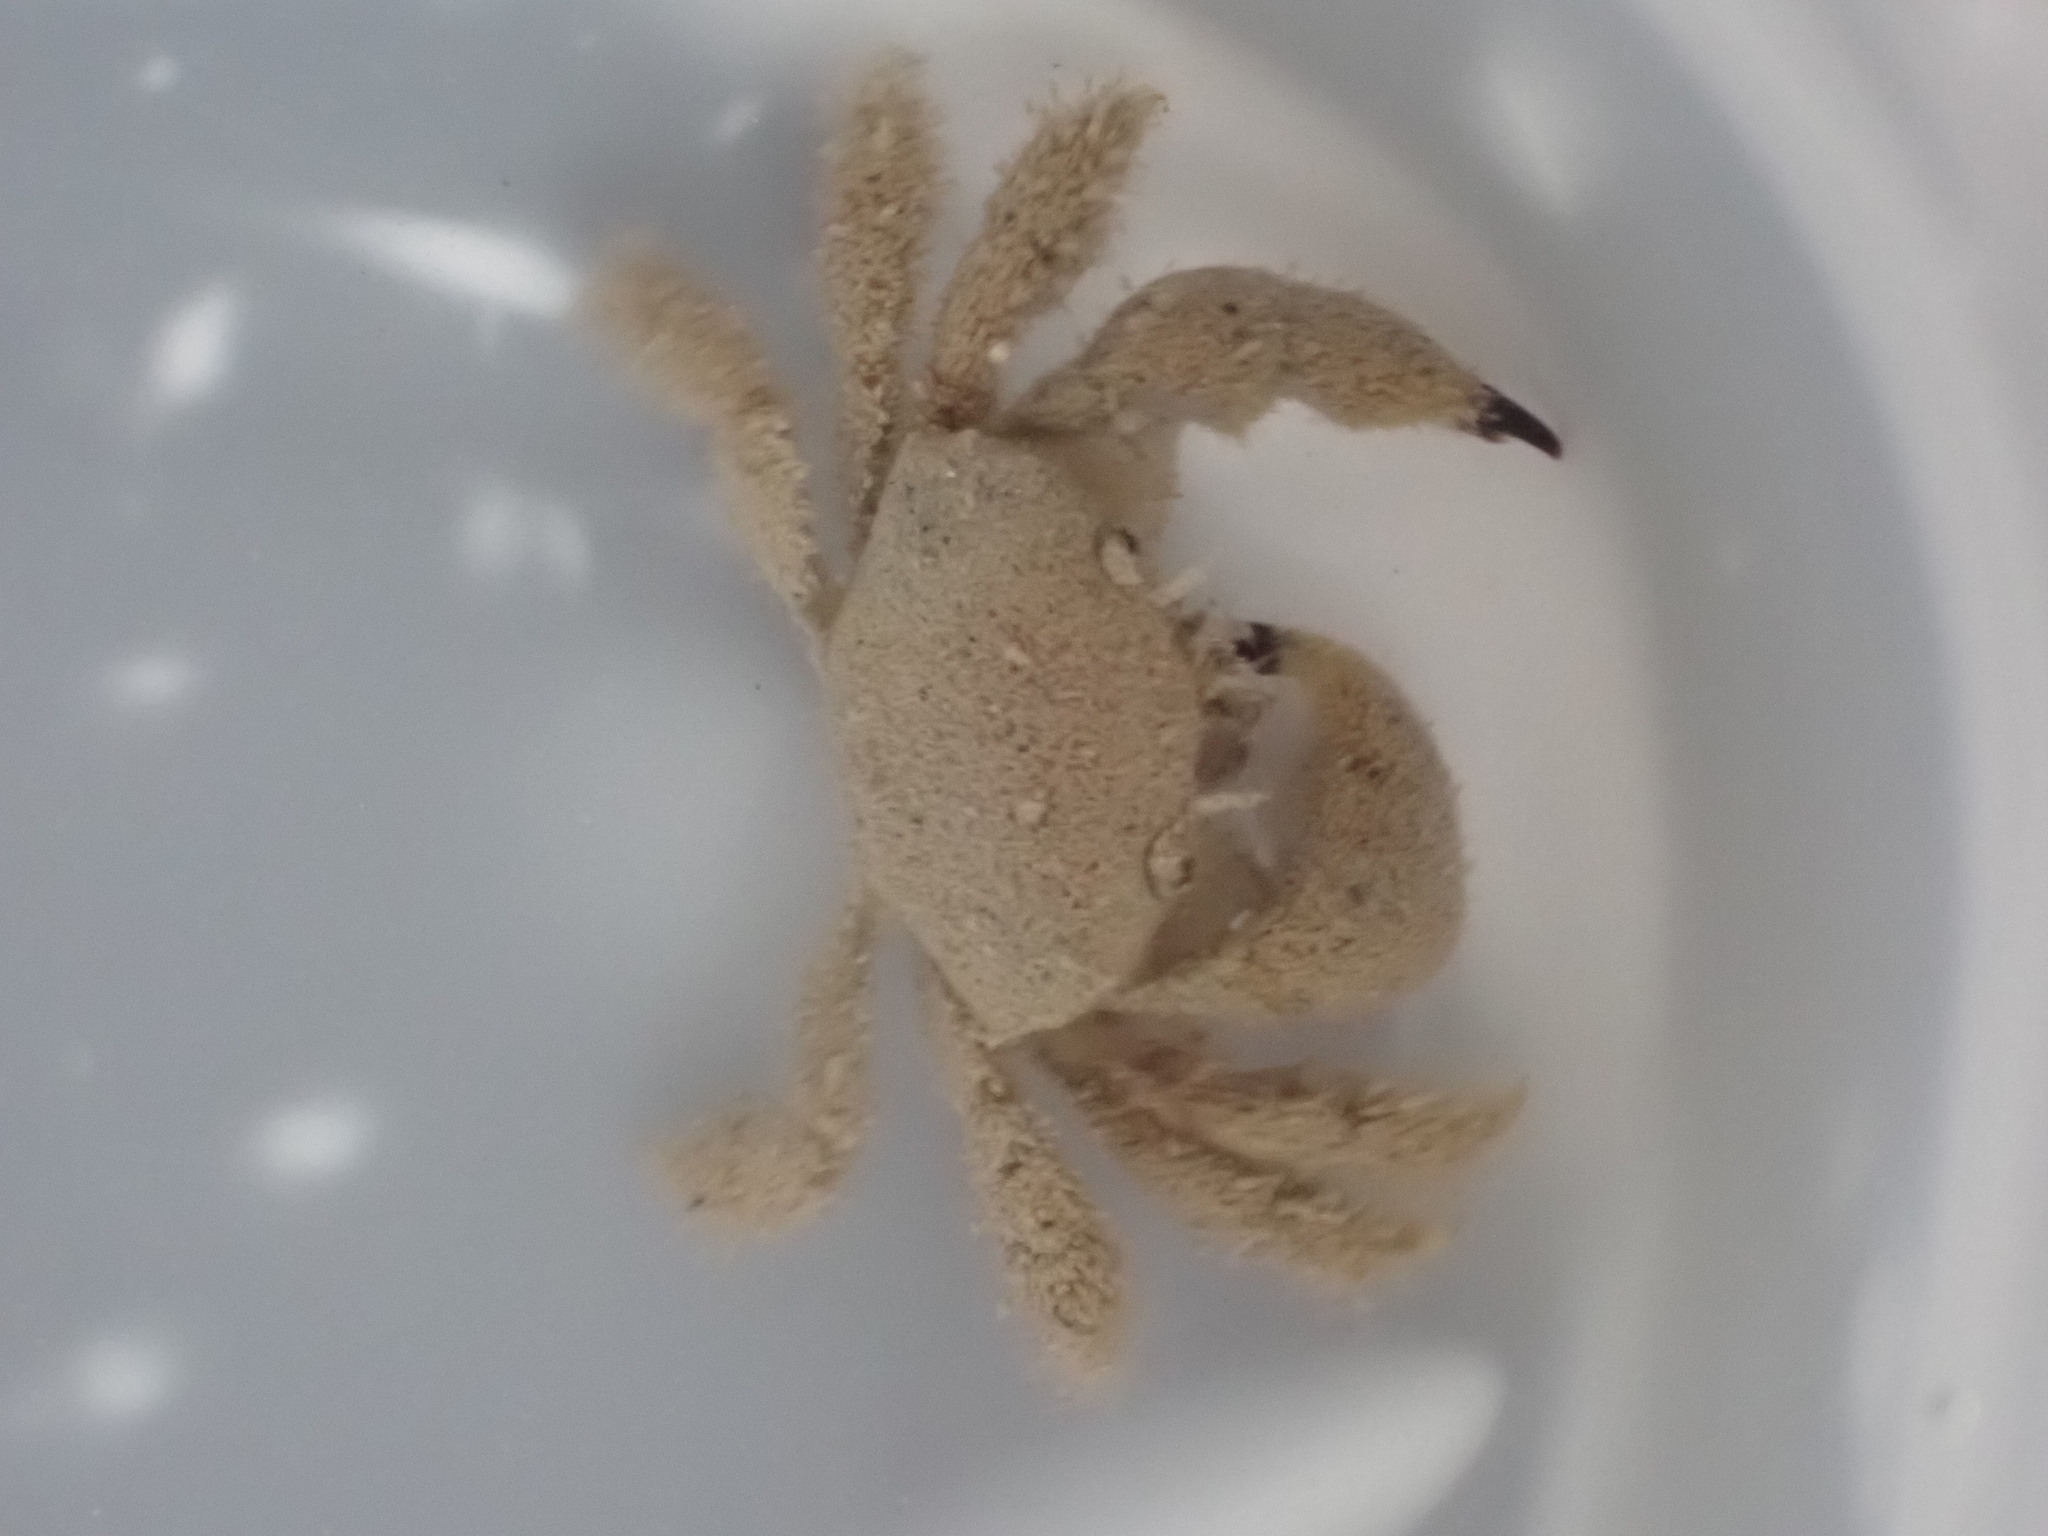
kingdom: Animalia
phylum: Arthropoda
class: Malacostraca
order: Decapoda
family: Pilumnidae
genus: Pilumnus
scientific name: Pilumnus lumpinus
